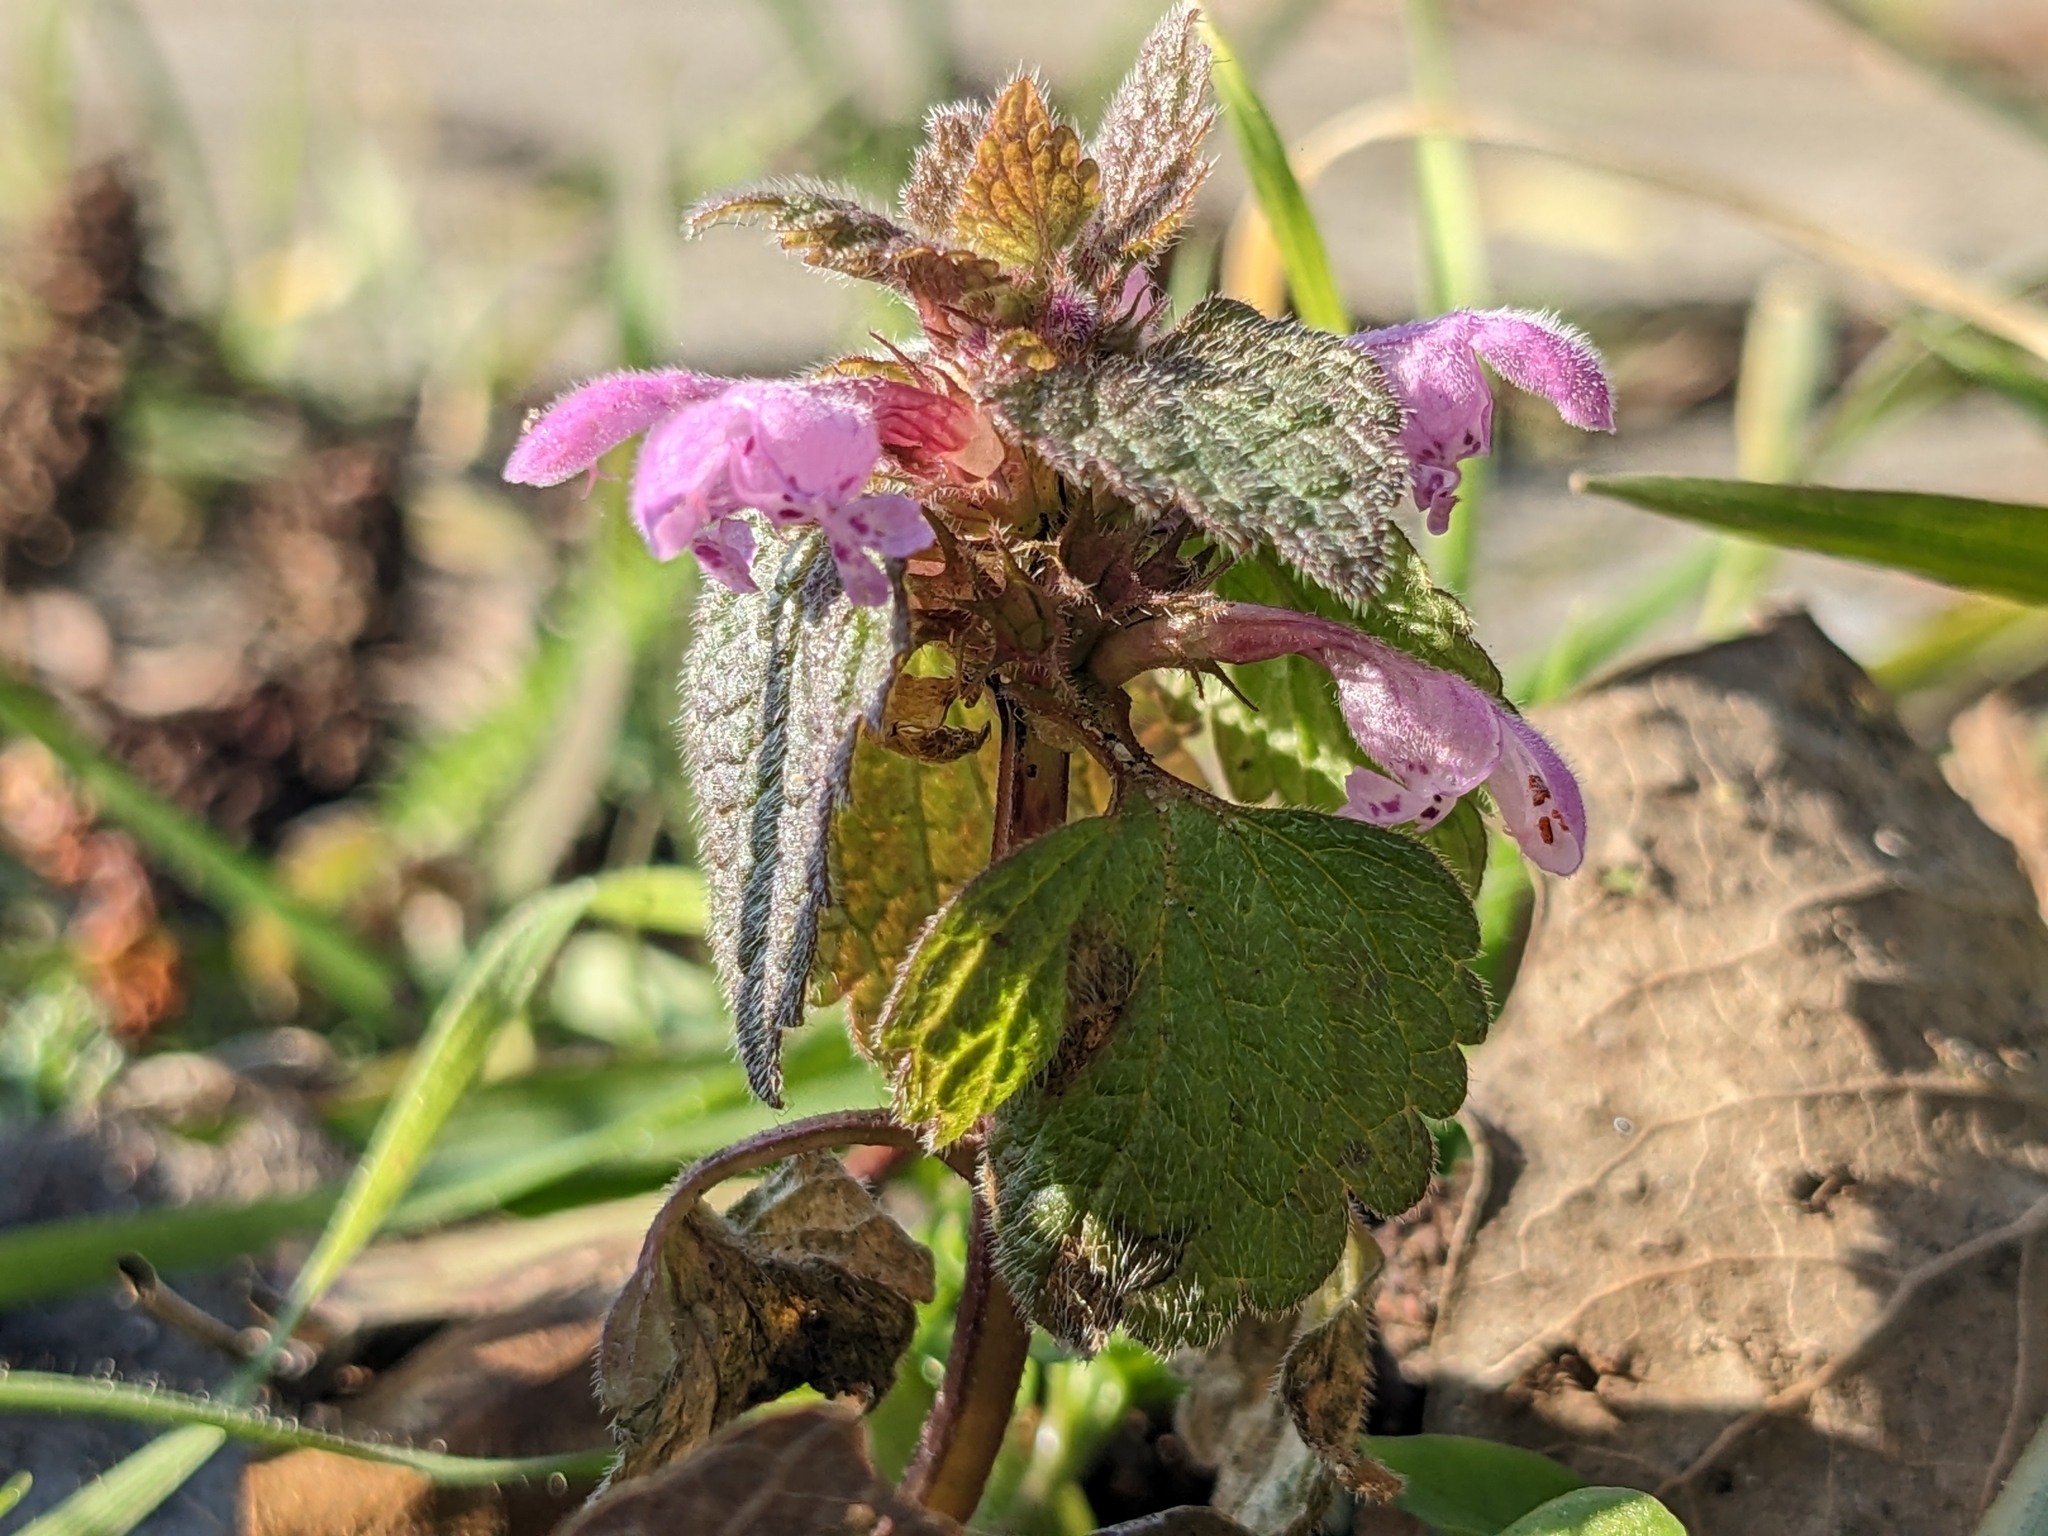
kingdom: Plantae
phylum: Tracheophyta
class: Magnoliopsida
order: Lamiales
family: Lamiaceae
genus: Lamium
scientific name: Lamium purpureum
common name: Red dead-nettle
